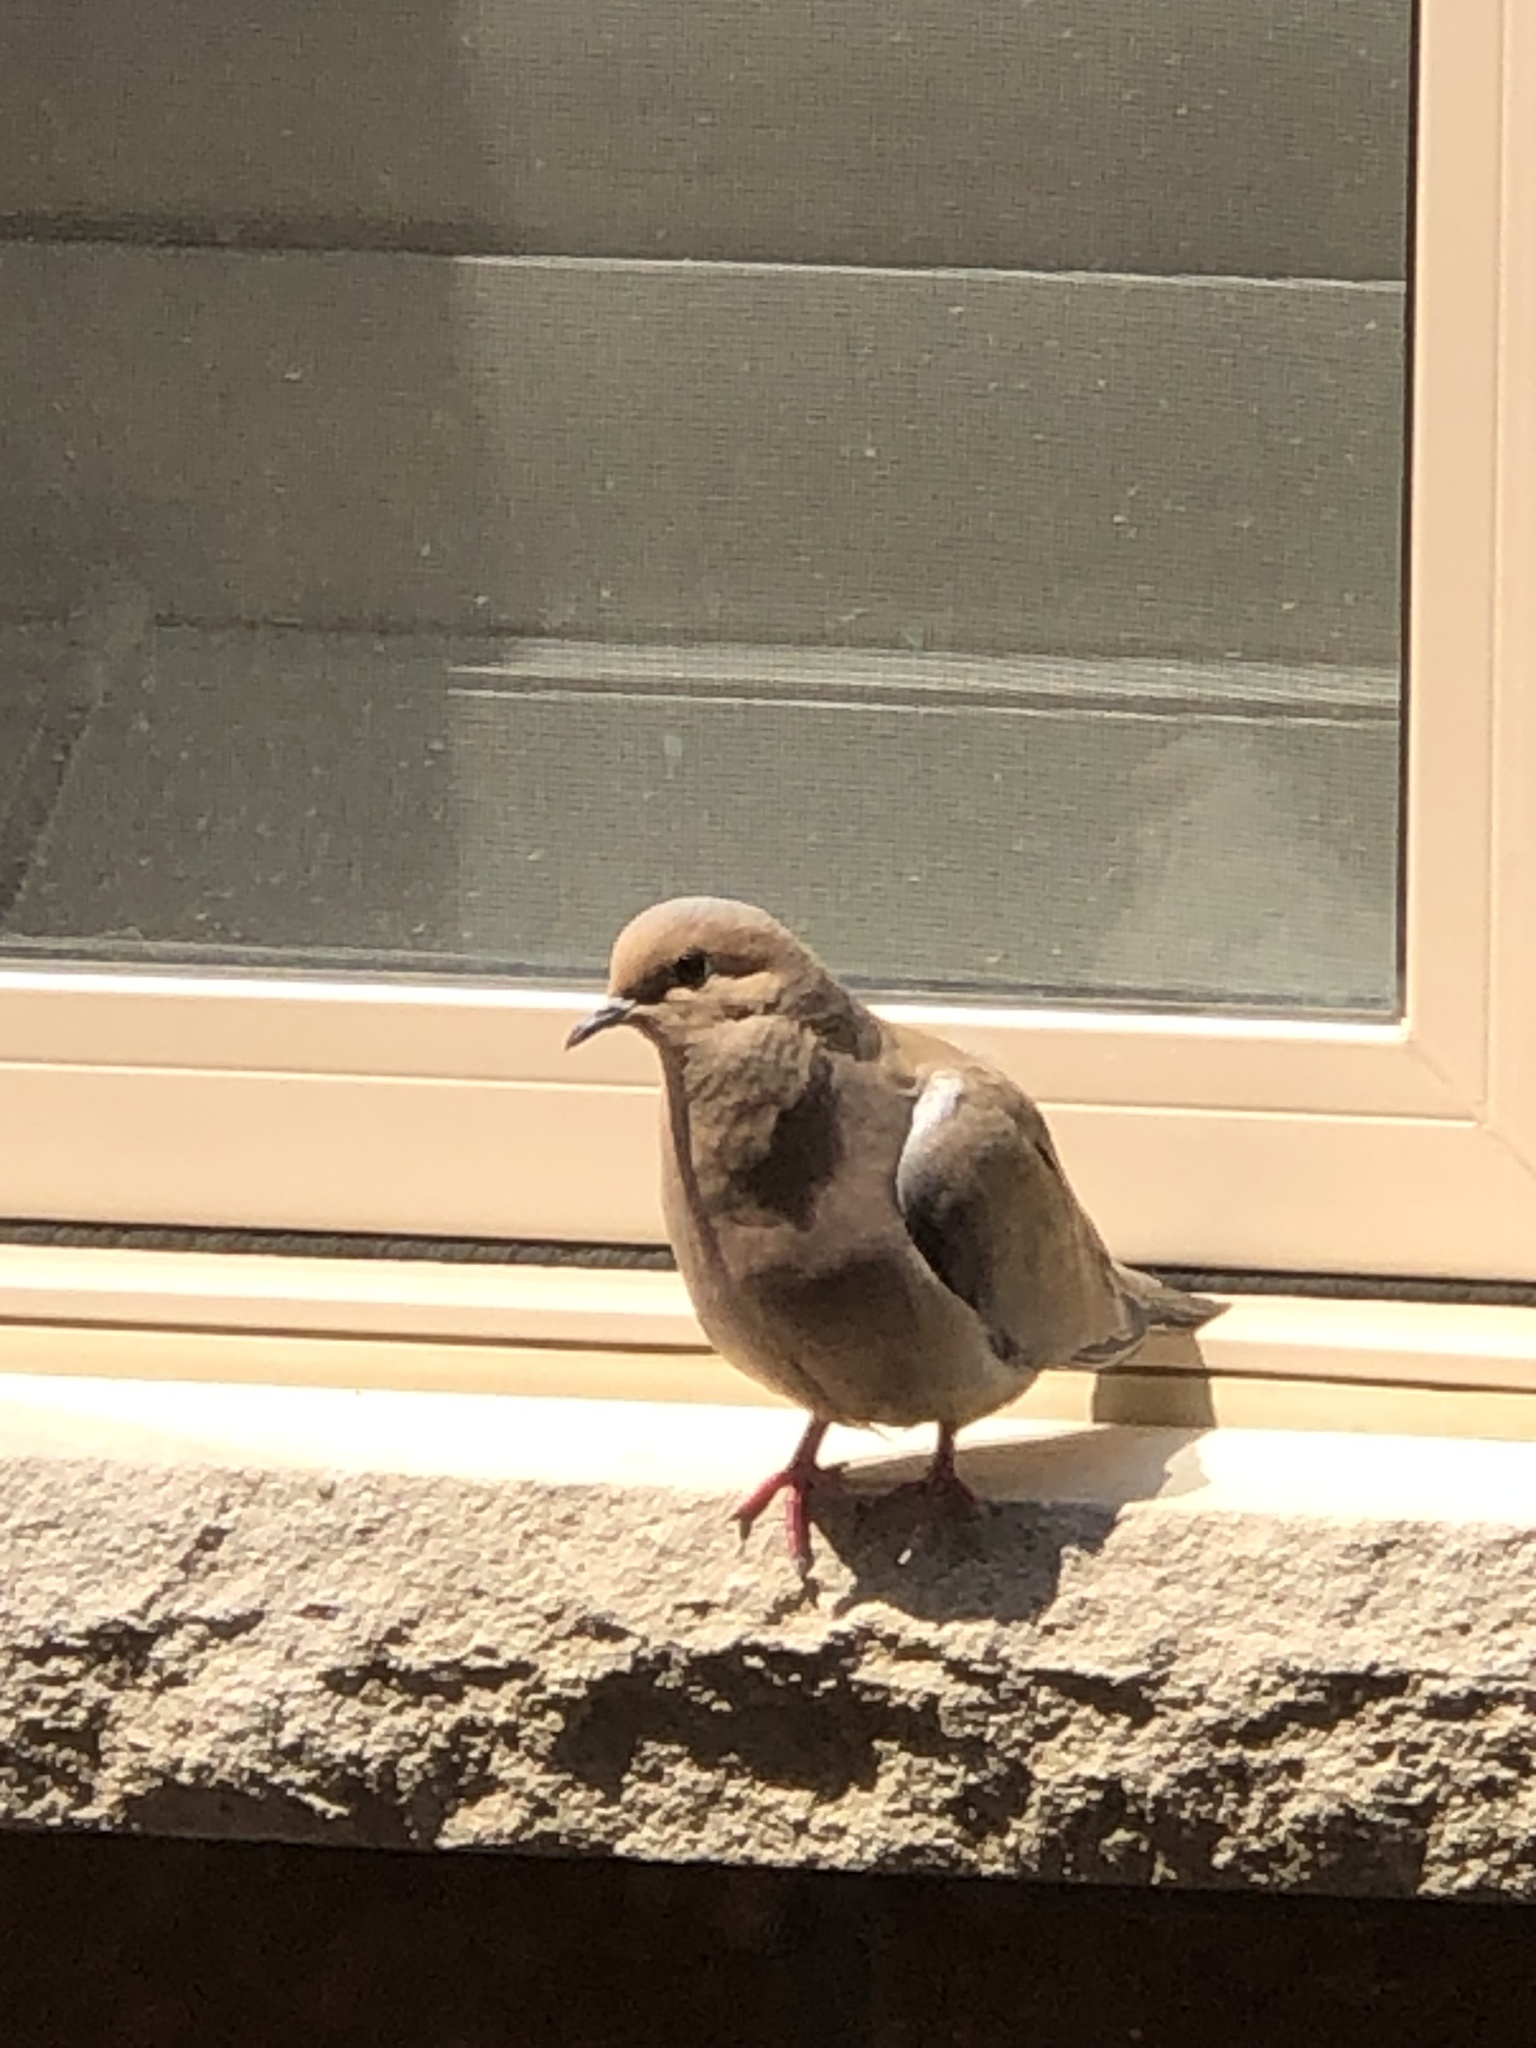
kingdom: Animalia
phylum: Chordata
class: Aves
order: Columbiformes
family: Columbidae
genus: Zenaida
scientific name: Zenaida macroura
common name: Mourning dove
